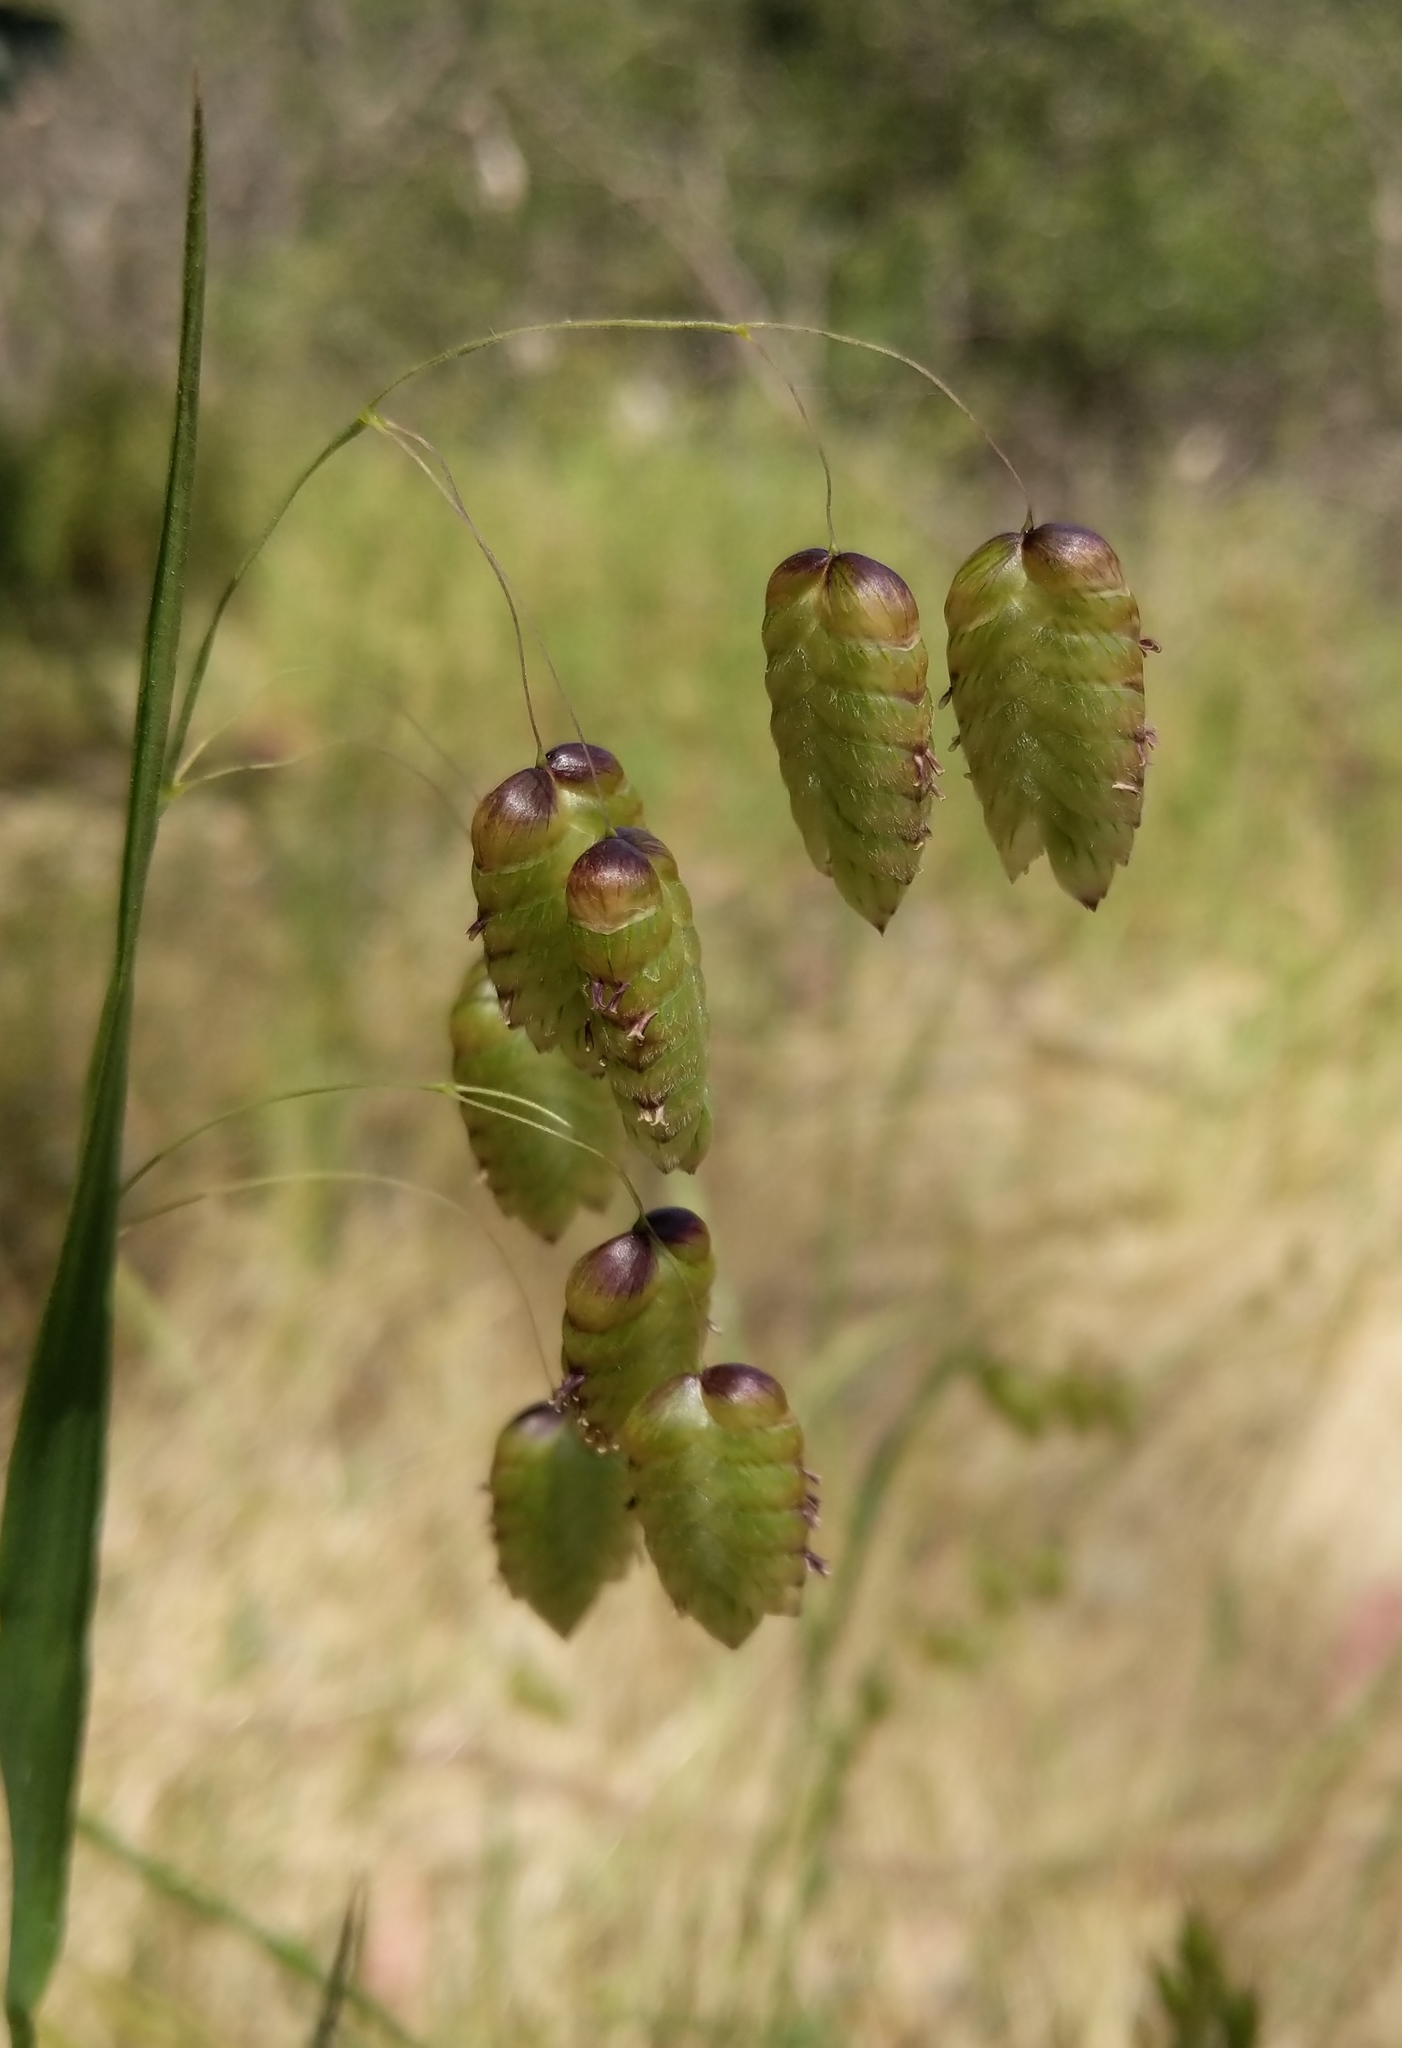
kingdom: Plantae
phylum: Tracheophyta
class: Liliopsida
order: Poales
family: Poaceae
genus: Briza
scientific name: Briza maxima
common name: Big quakinggrass
